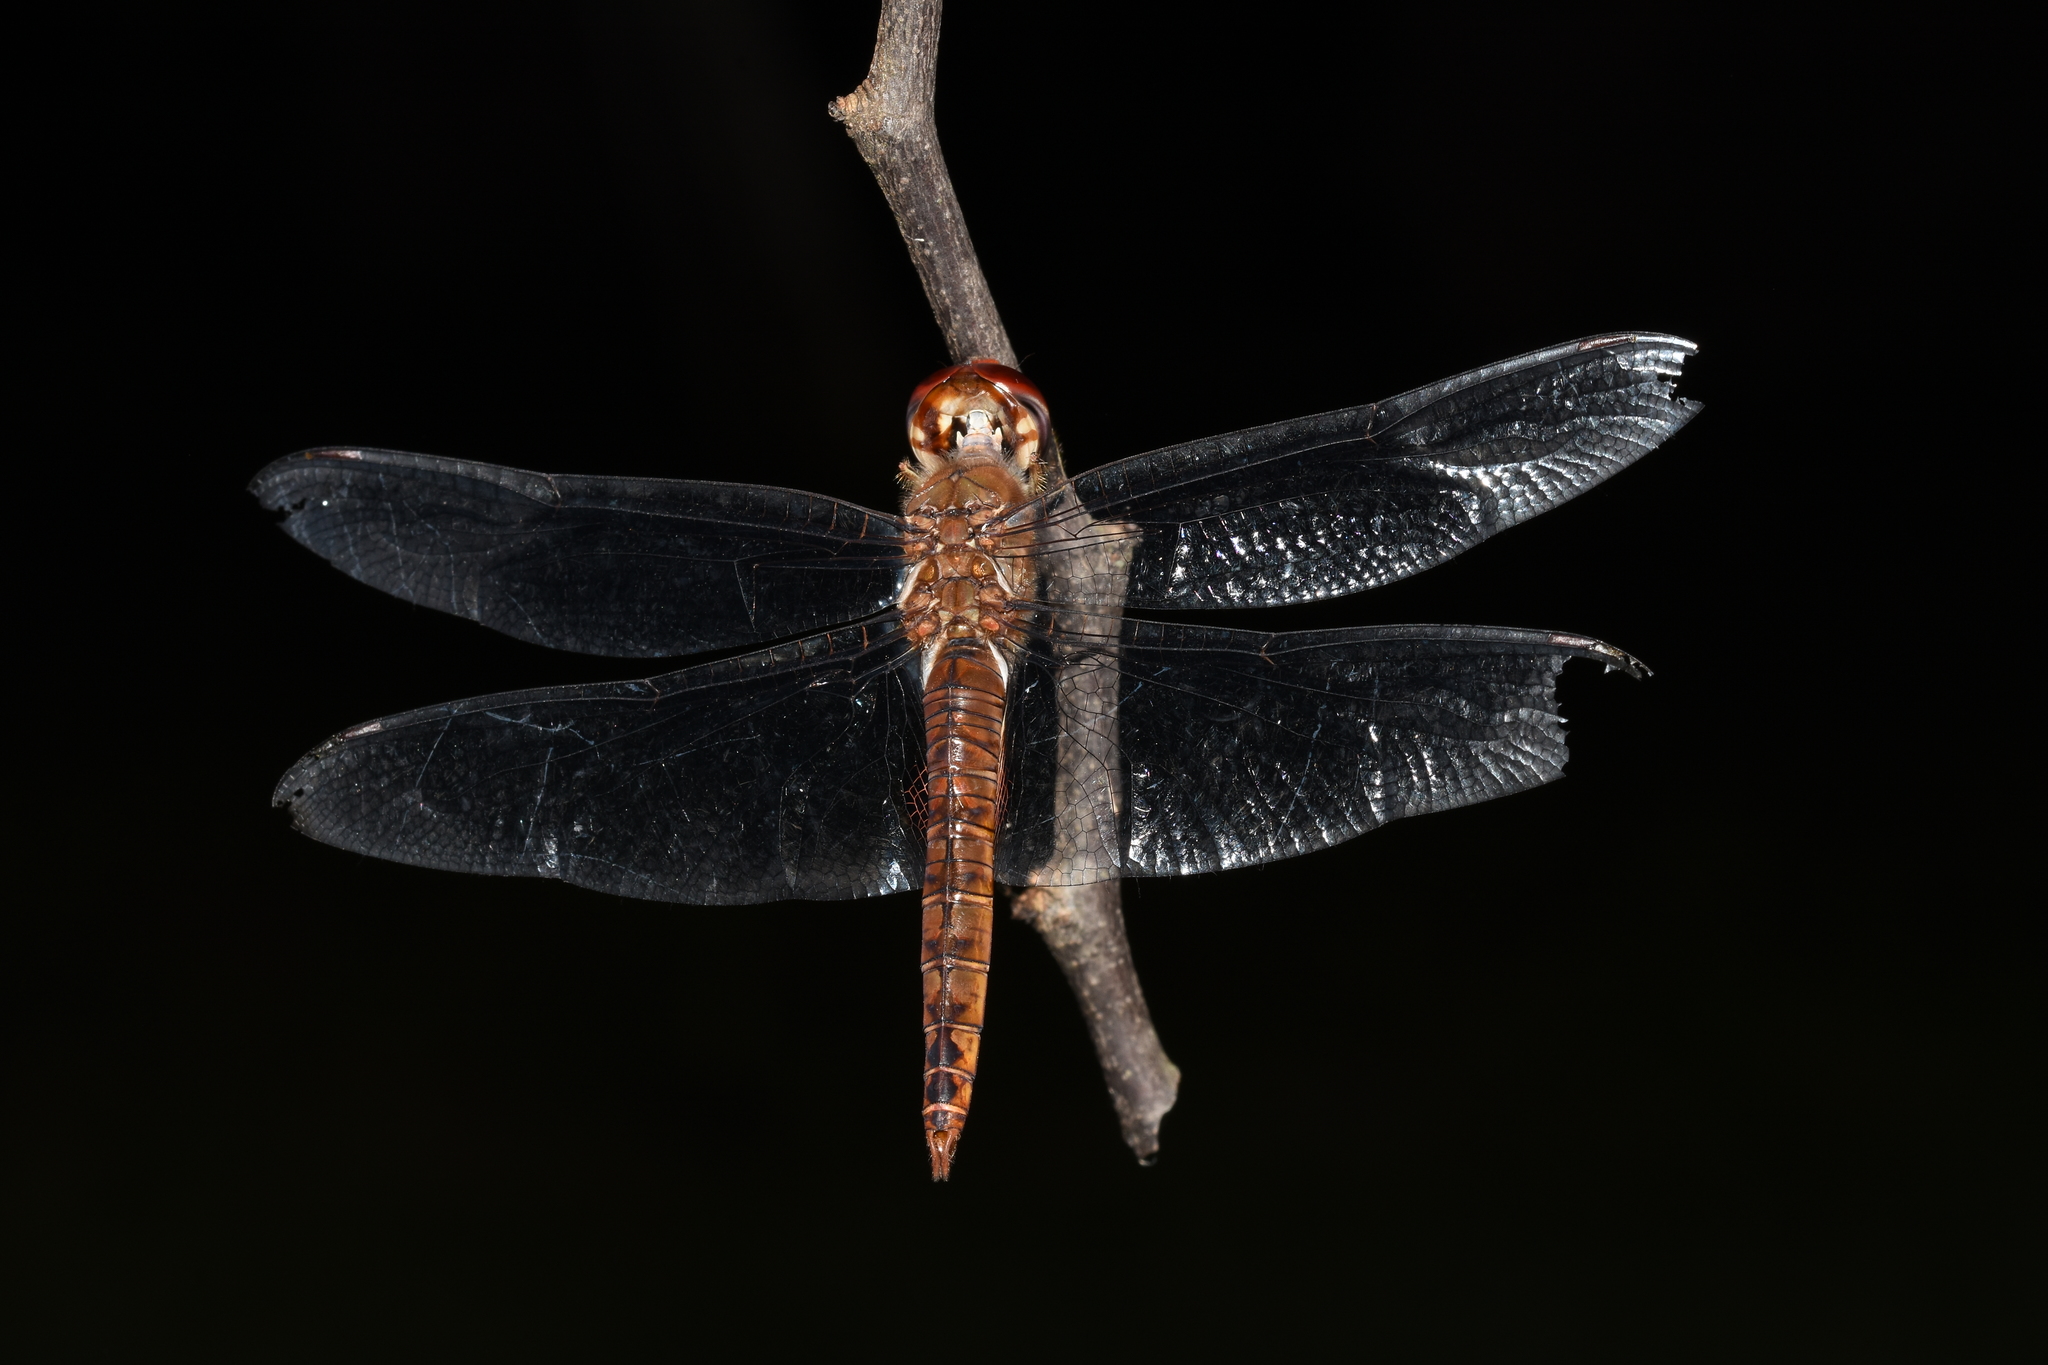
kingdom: Animalia
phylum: Arthropoda
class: Insecta
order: Odonata
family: Libellulidae
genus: Pantala
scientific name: Pantala hymenaea
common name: Spot-winged glider
